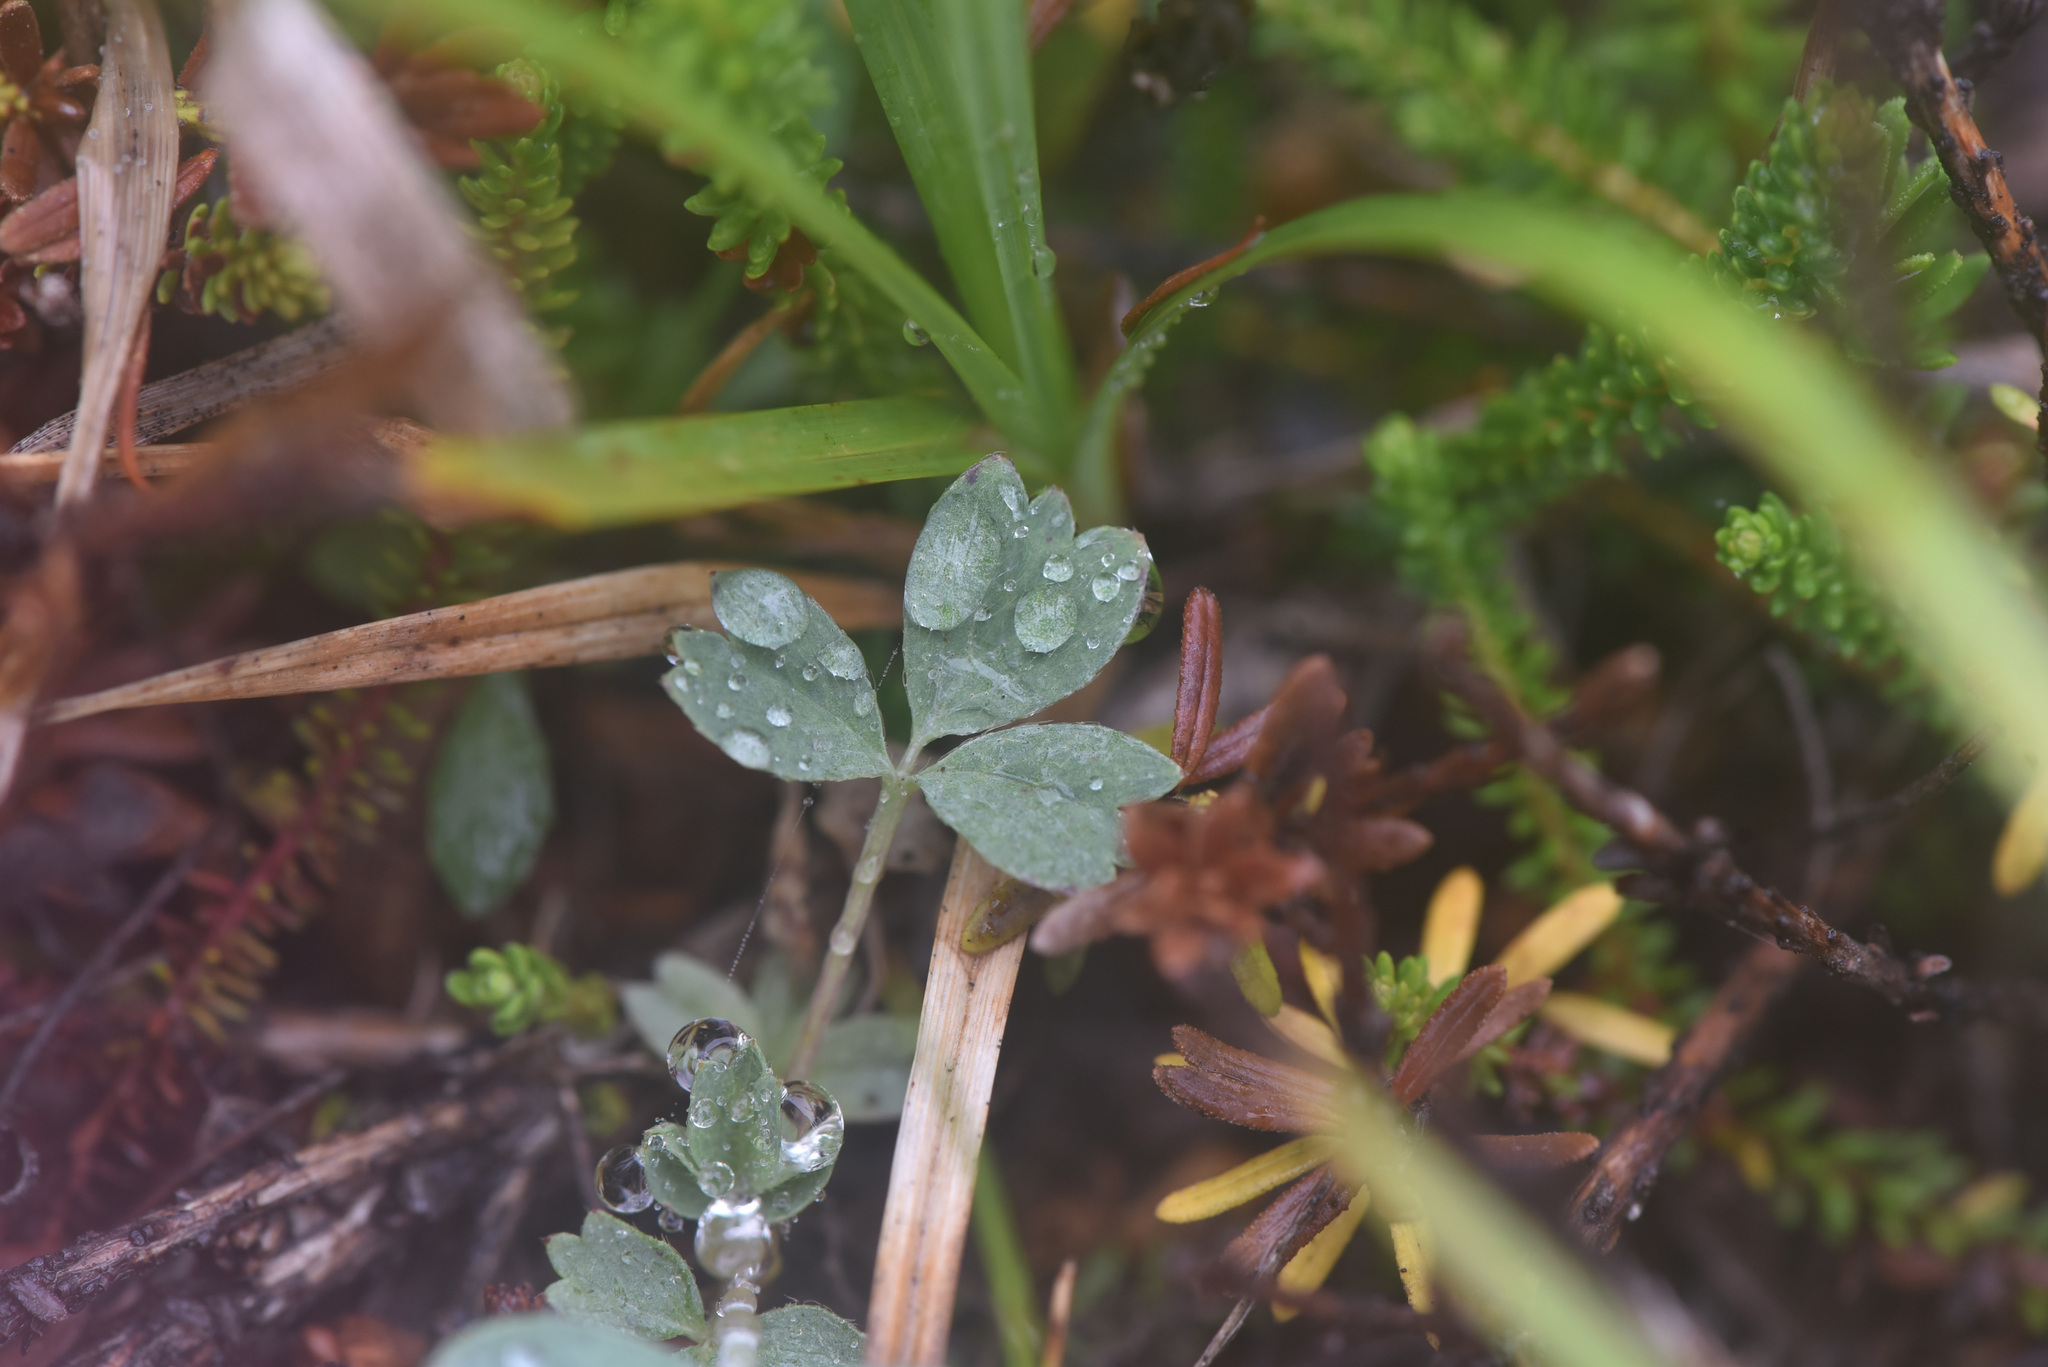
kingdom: Plantae
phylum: Tracheophyta
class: Magnoliopsida
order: Rosales
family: Rosaceae
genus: Sibbaldia
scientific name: Sibbaldia procumbens
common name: Creeping sibbaldia
